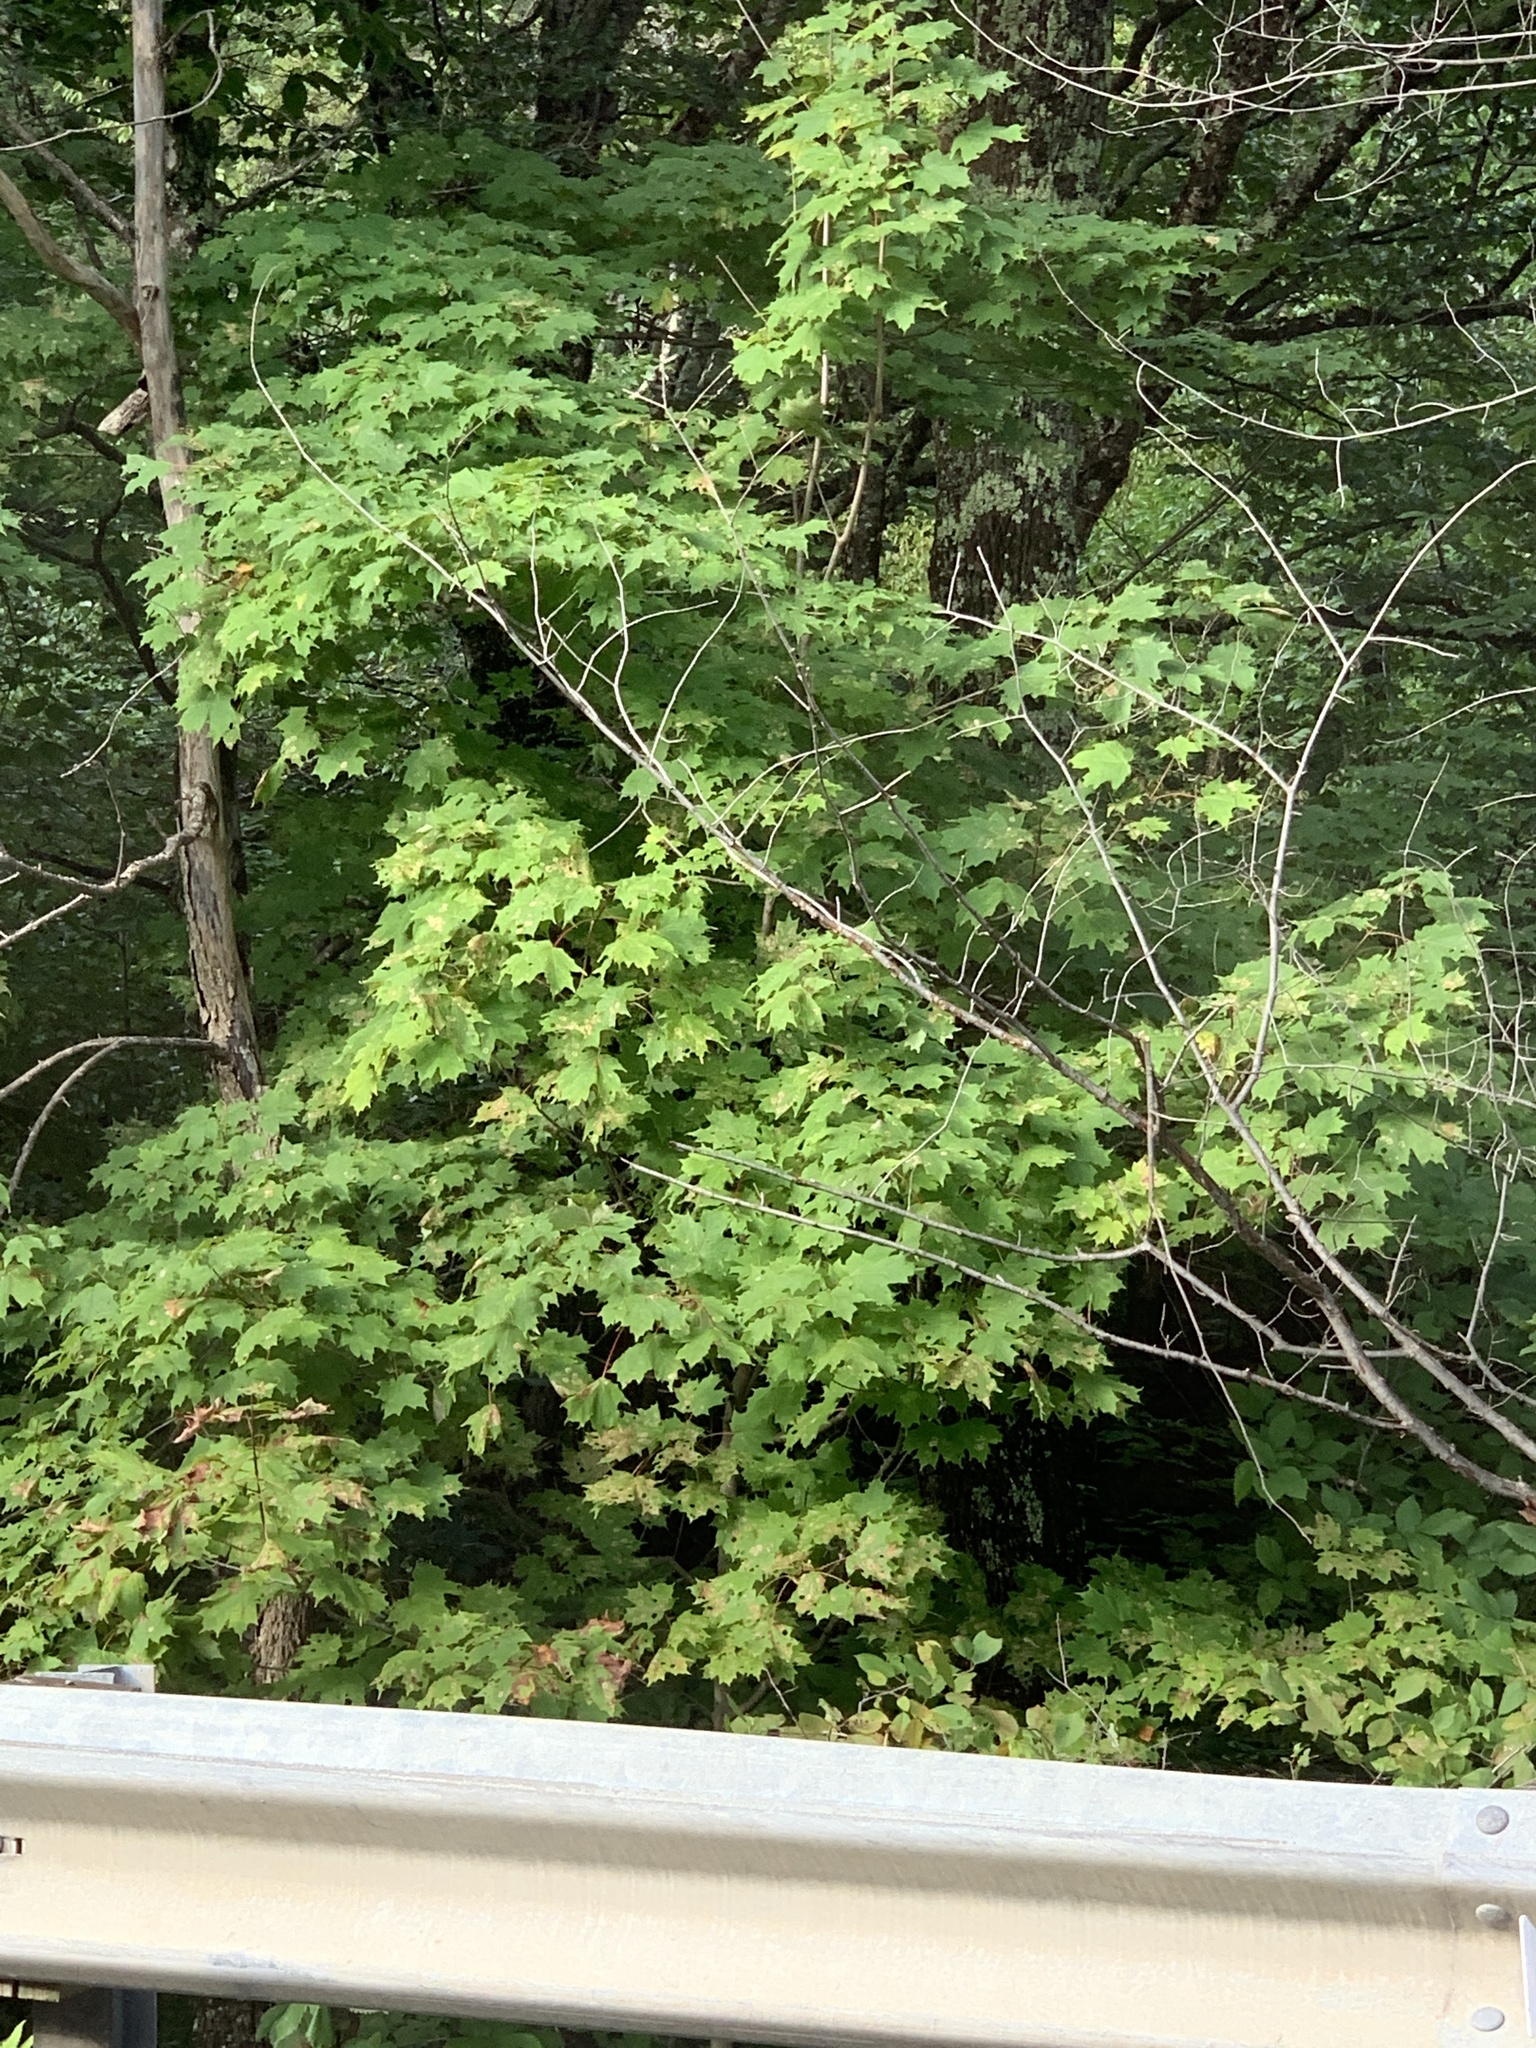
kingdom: Plantae
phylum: Tracheophyta
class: Magnoliopsida
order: Sapindales
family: Sapindaceae
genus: Acer
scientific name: Acer saccharum
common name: Sugar maple
